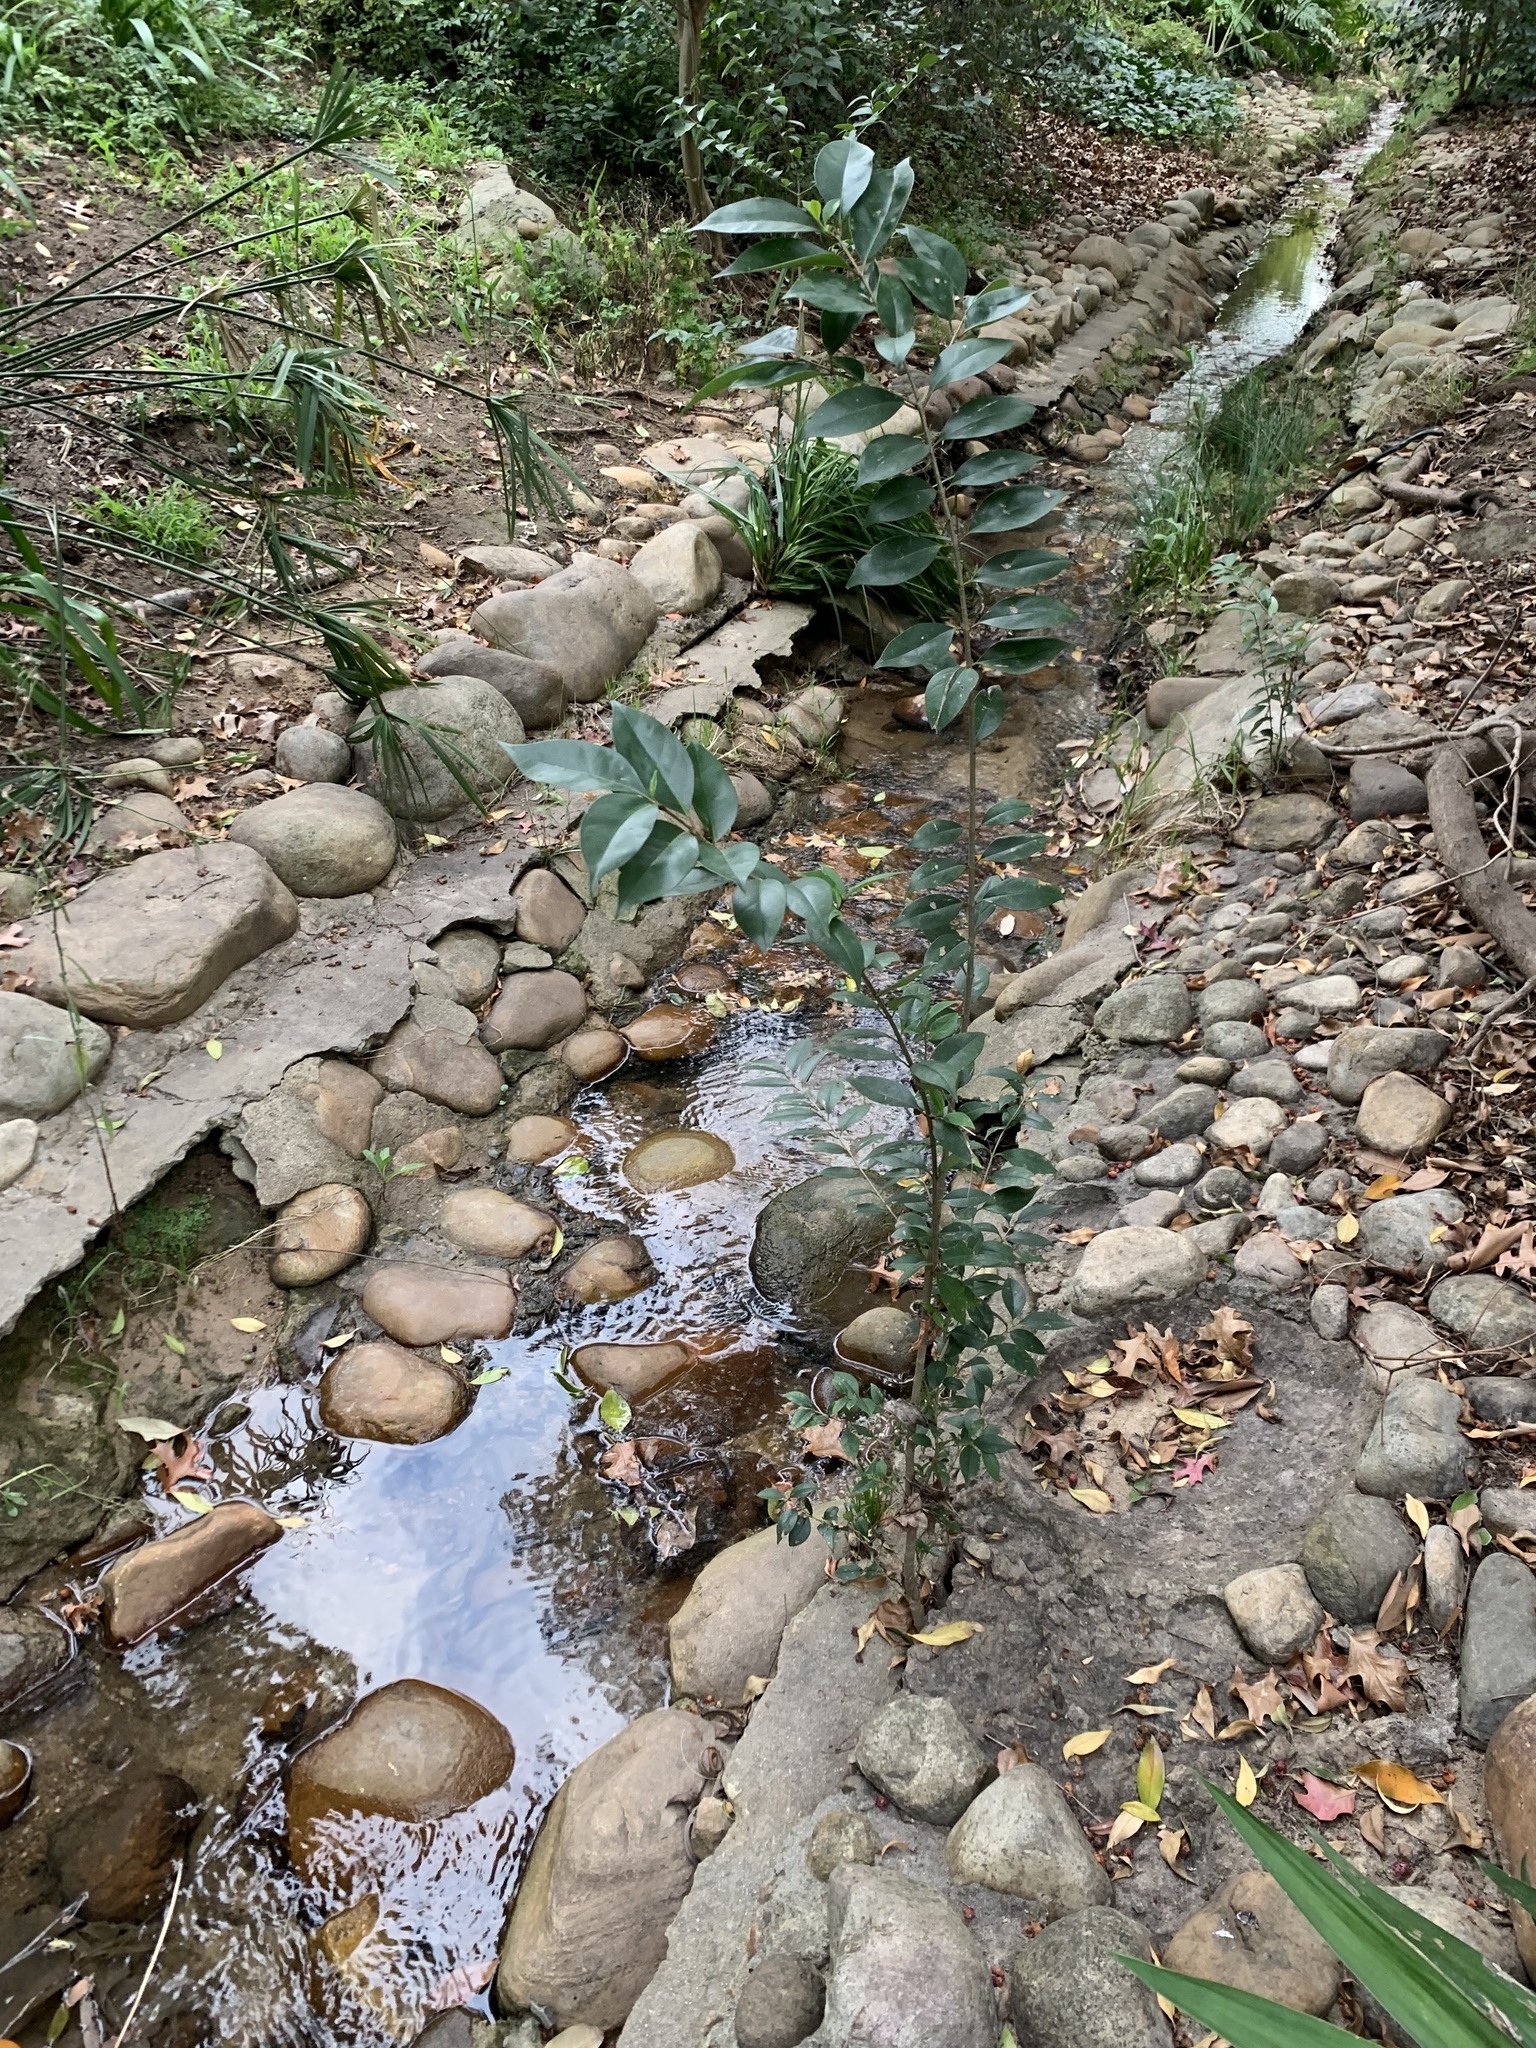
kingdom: Plantae
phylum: Tracheophyta
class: Magnoliopsida
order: Lamiales
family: Oleaceae
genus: Ligustrum
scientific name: Ligustrum lucidum
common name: Glossy privet
